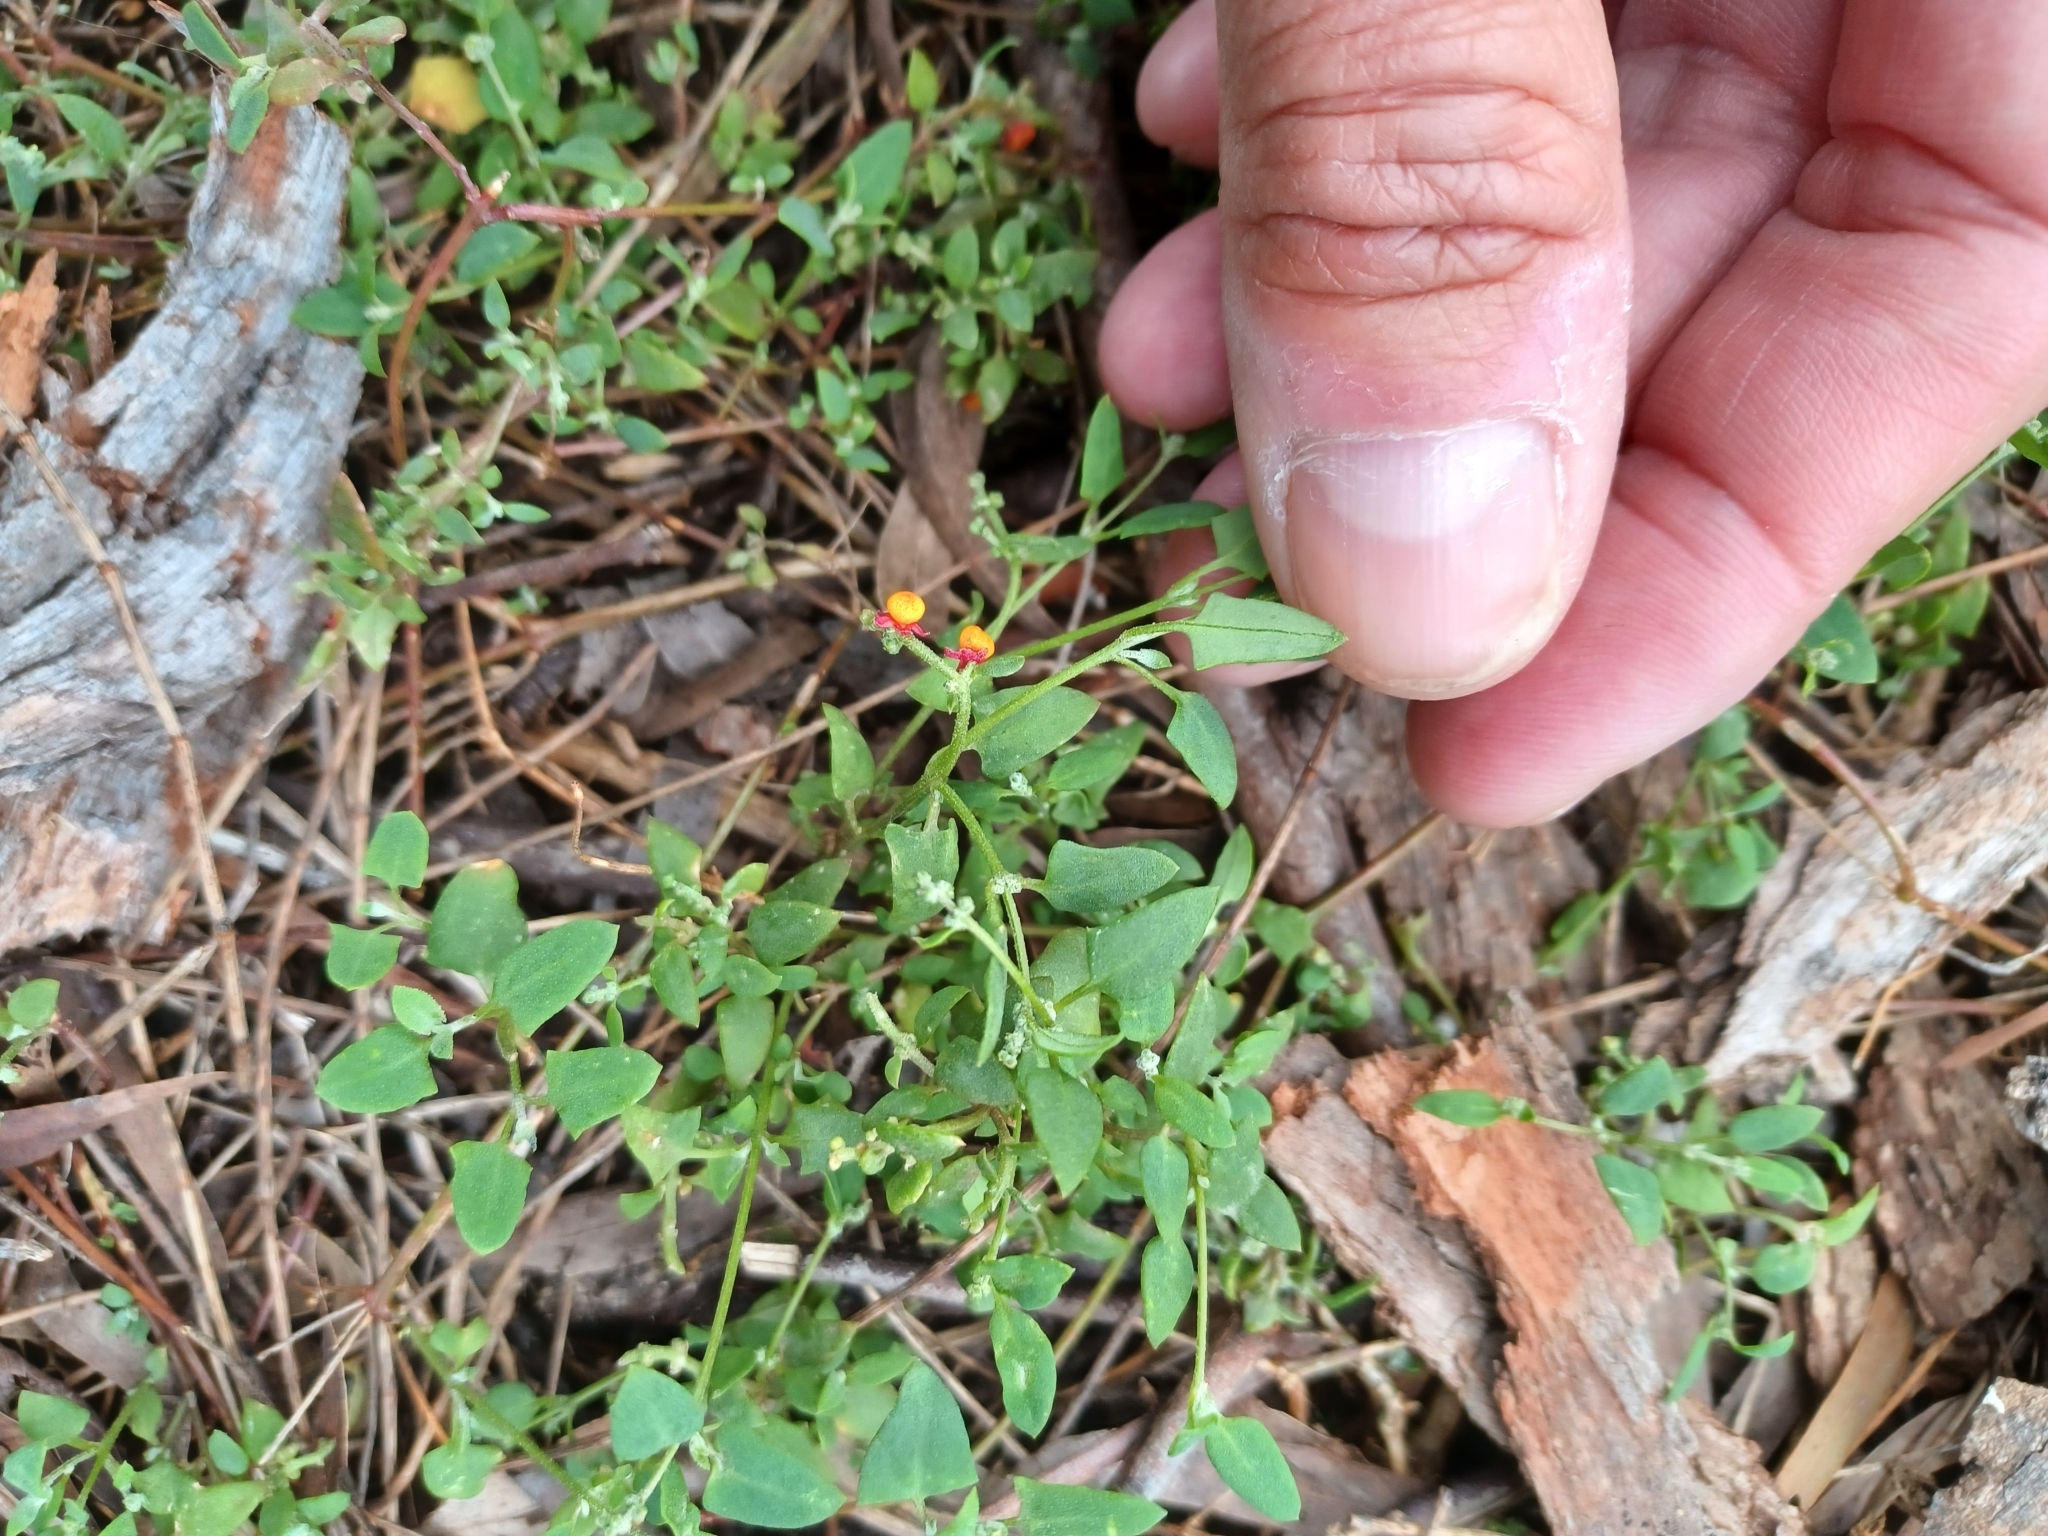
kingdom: Plantae
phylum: Tracheophyta
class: Magnoliopsida
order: Caryophyllales
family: Amaranthaceae
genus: Chenopodium
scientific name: Chenopodium nutans
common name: Climbing-saltbush
